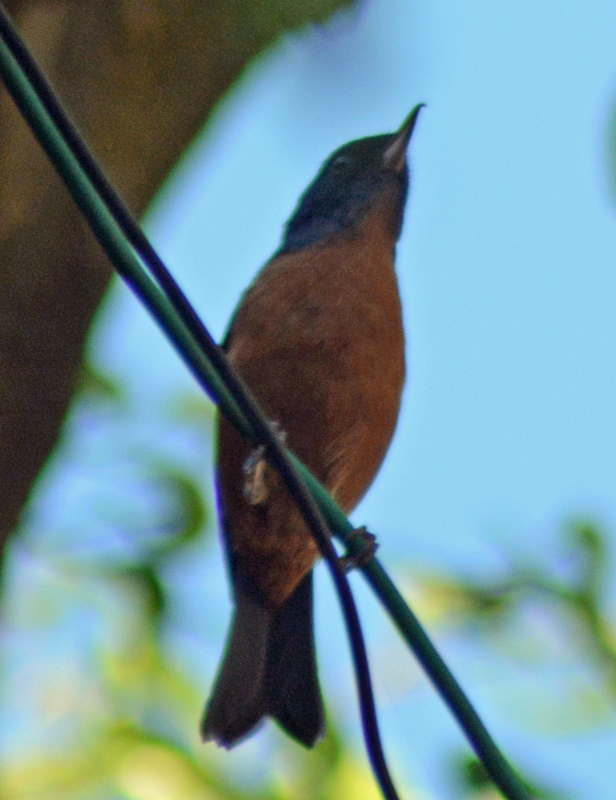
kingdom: Animalia
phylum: Chordata
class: Aves
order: Passeriformes
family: Thraupidae
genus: Diglossa
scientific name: Diglossa baritula
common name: Cinnamon-bellied flowerpiercer
